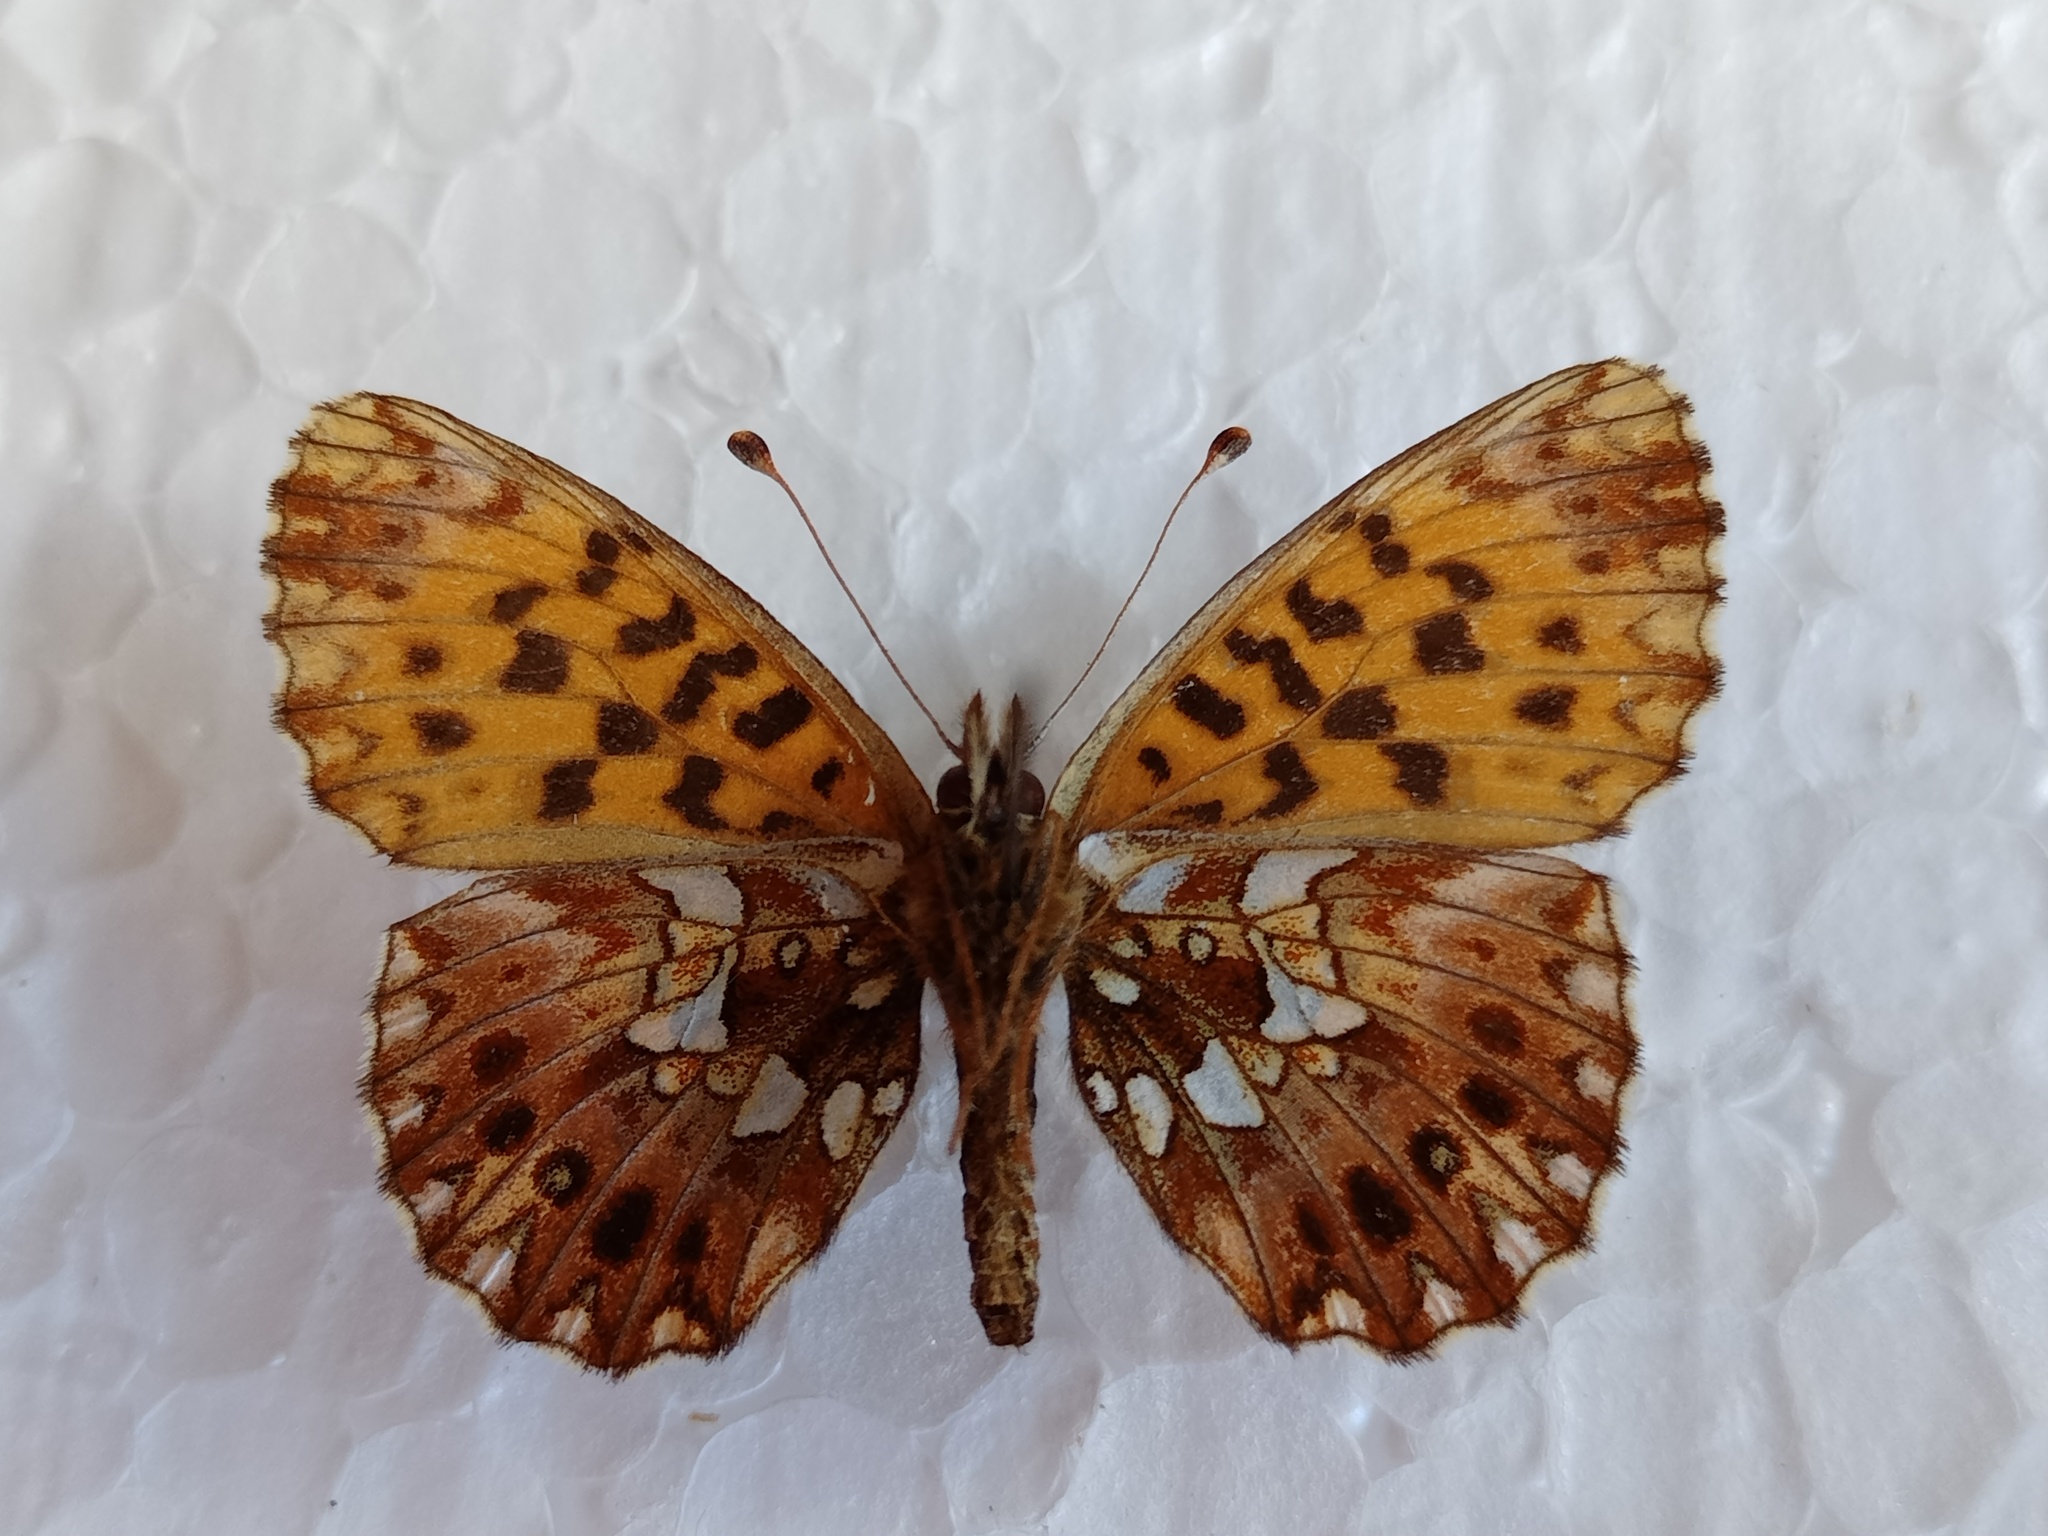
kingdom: Animalia
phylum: Arthropoda
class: Insecta
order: Lepidoptera
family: Nymphalidae
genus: Boloria
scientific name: Boloria dia
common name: Weaver's fritillary
